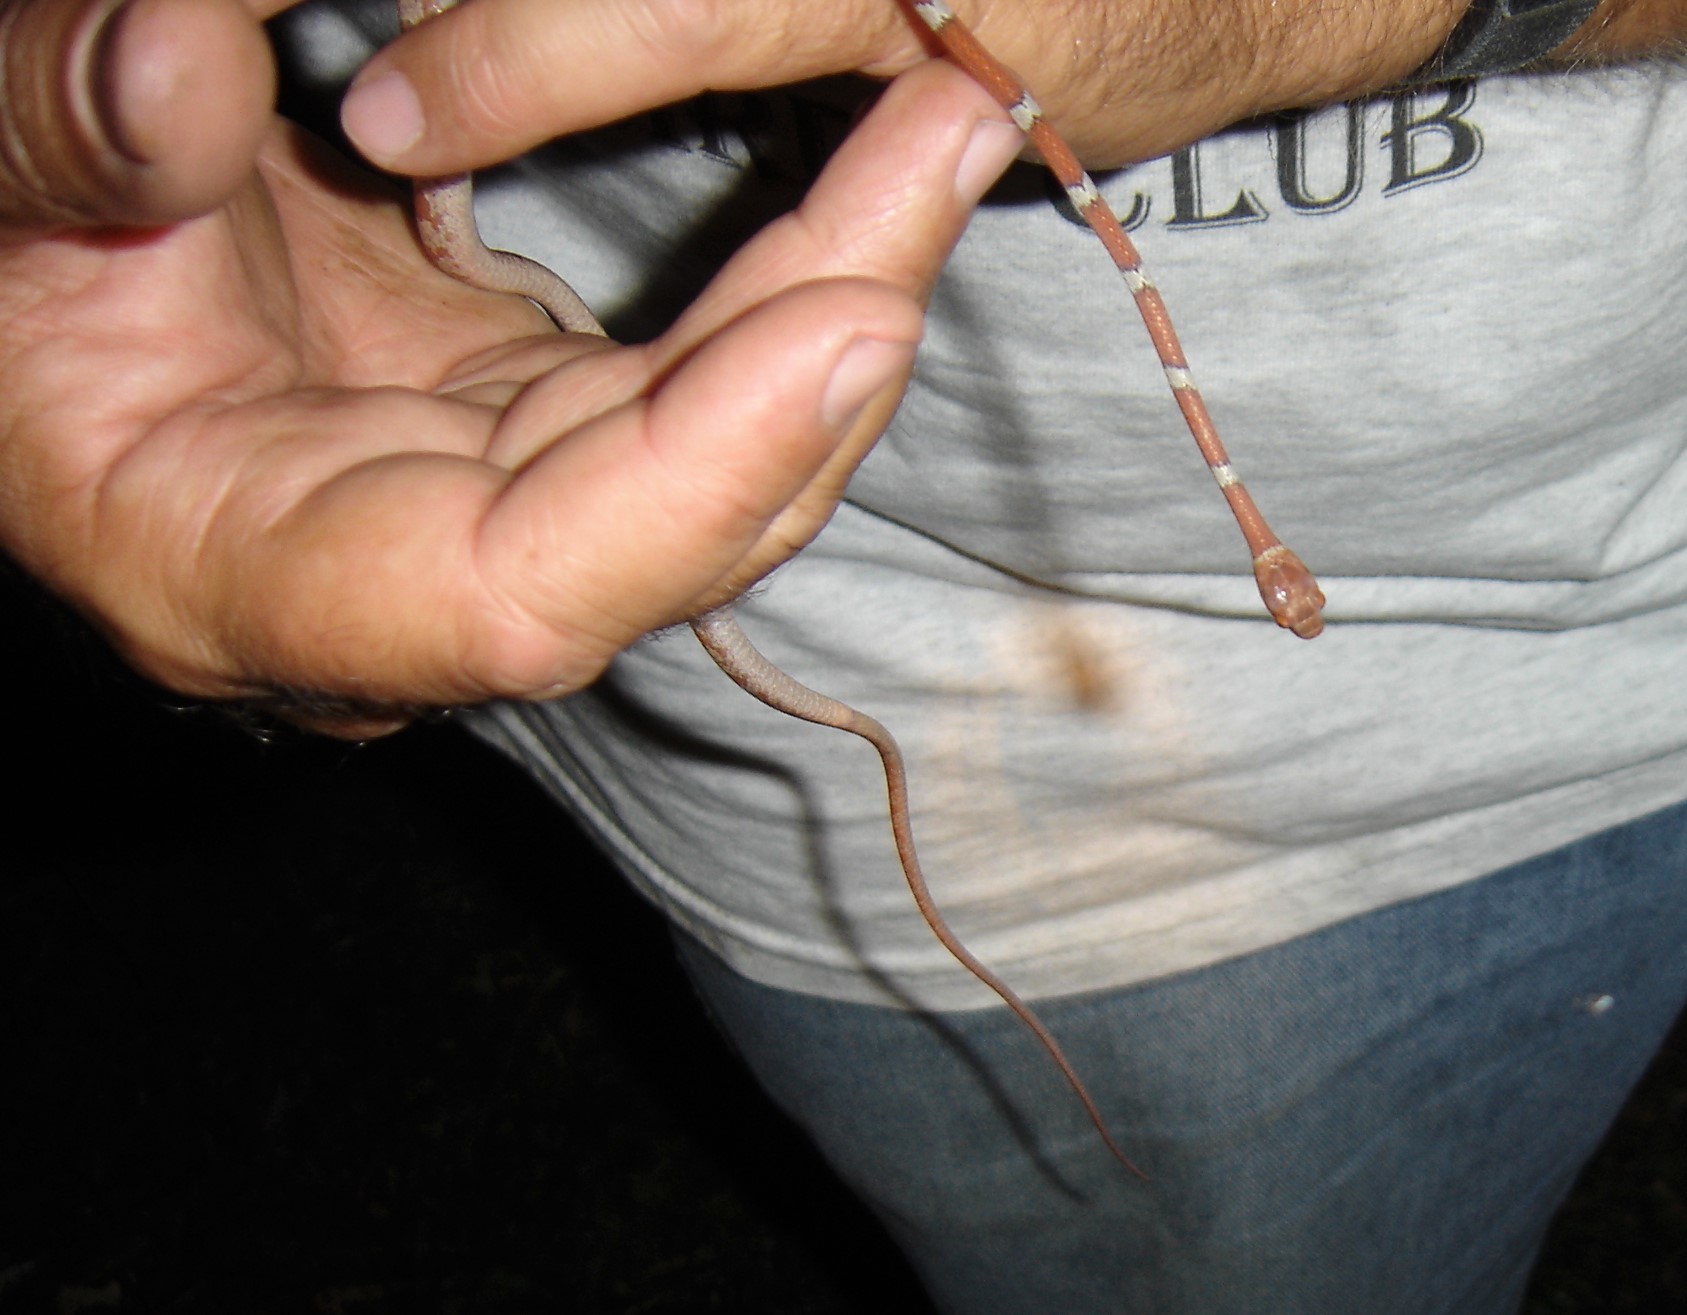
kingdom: Animalia
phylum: Chordata
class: Squamata
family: Colubridae
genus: Imantodes
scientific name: Imantodes gemmistratus
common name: Central american tree snake
